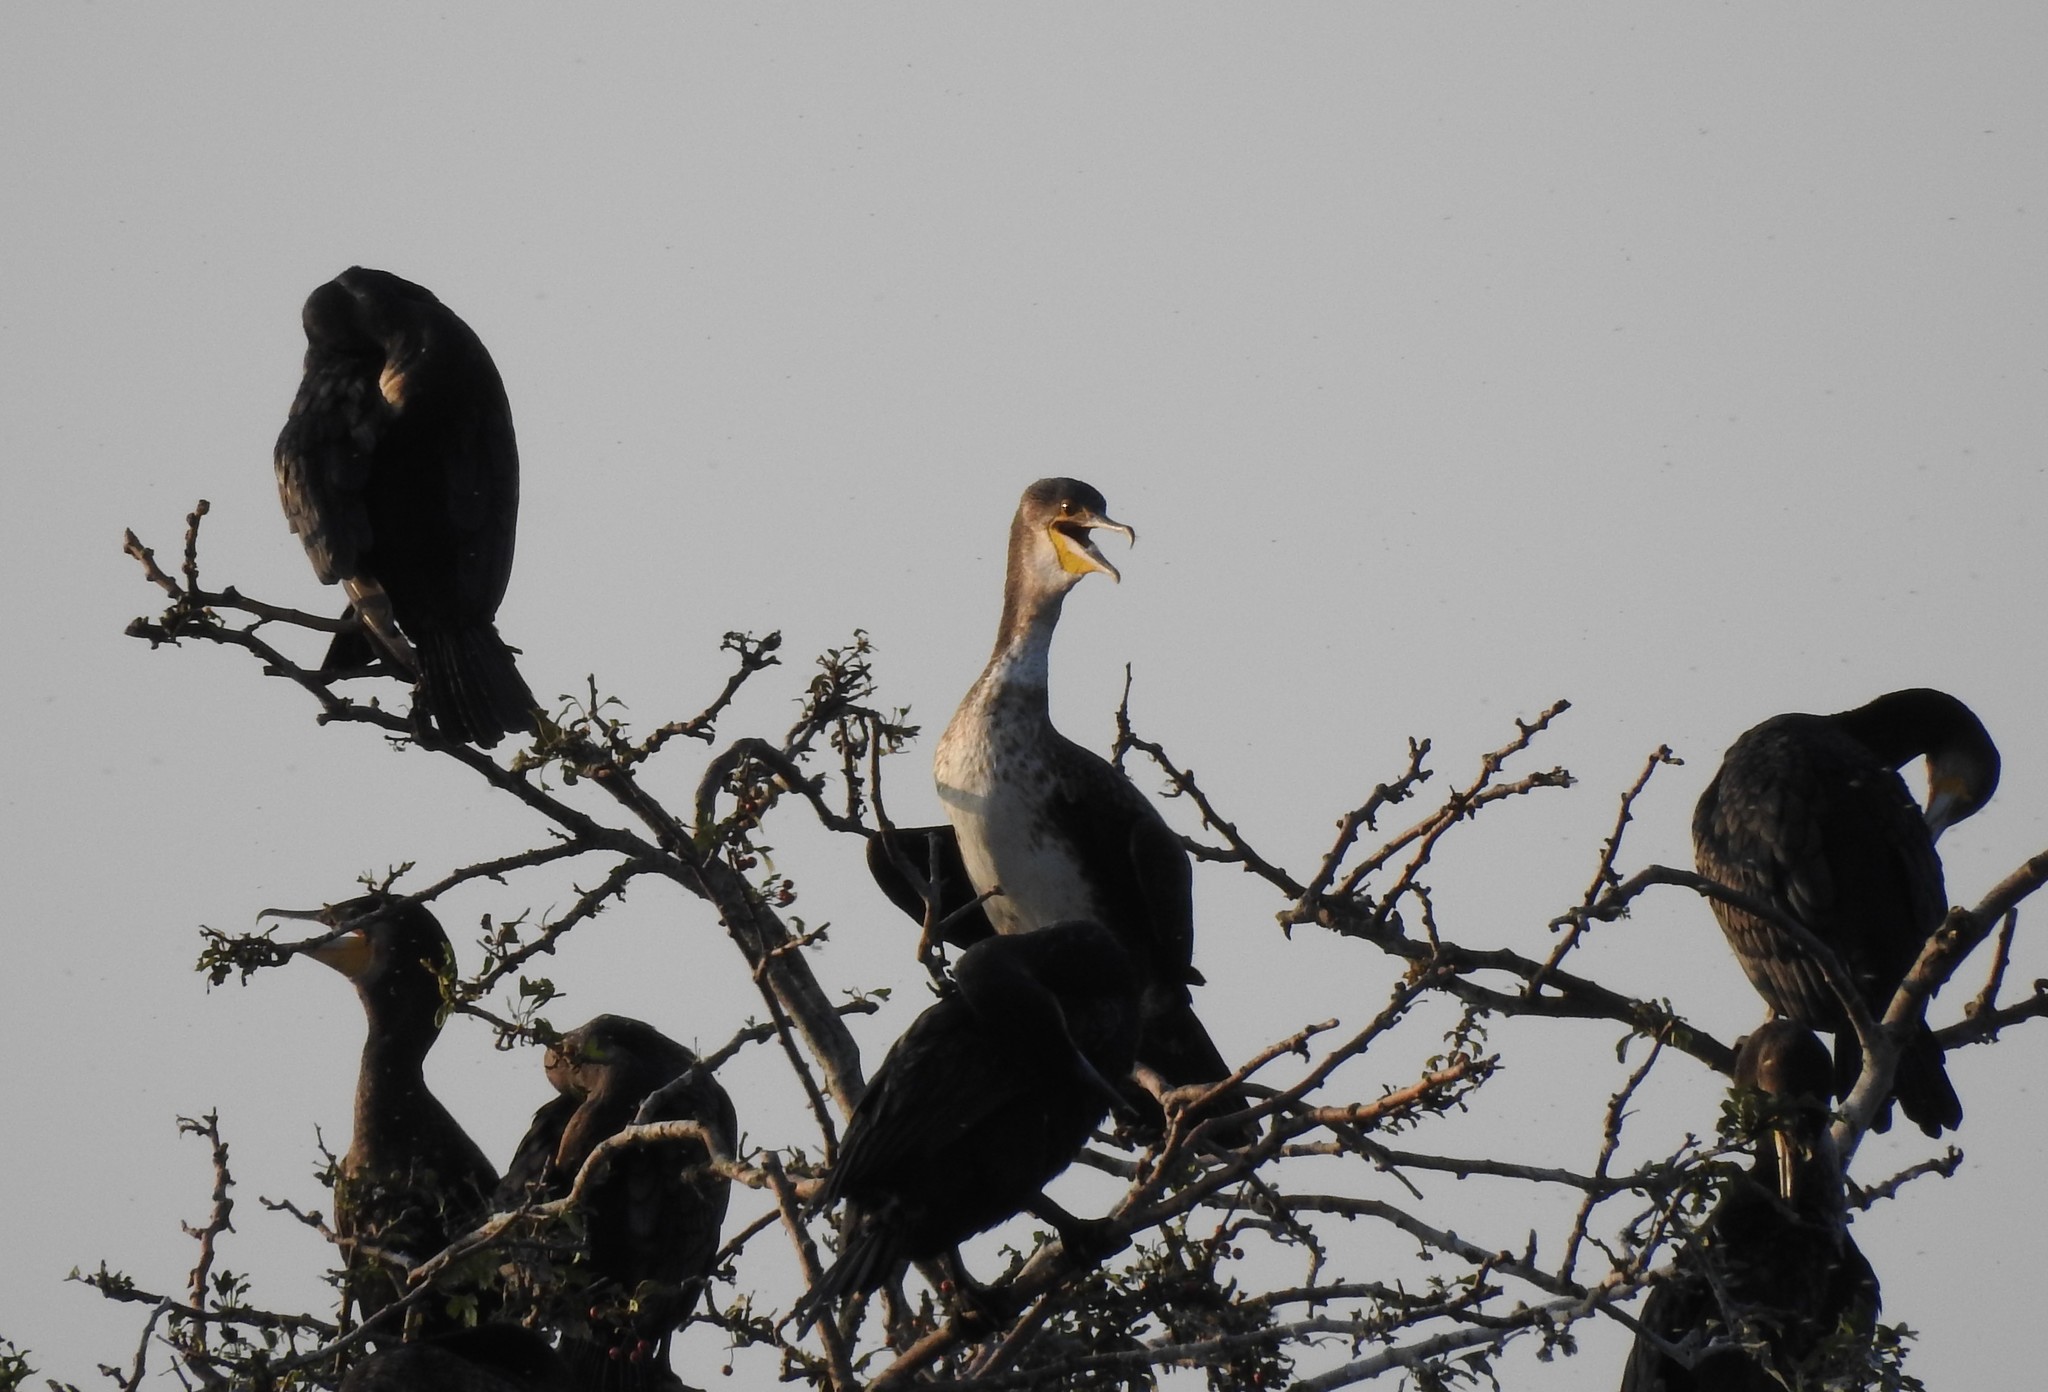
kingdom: Animalia
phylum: Chordata
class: Aves
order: Suliformes
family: Phalacrocoracidae
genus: Phalacrocorax
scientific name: Phalacrocorax carbo
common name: Great cormorant
